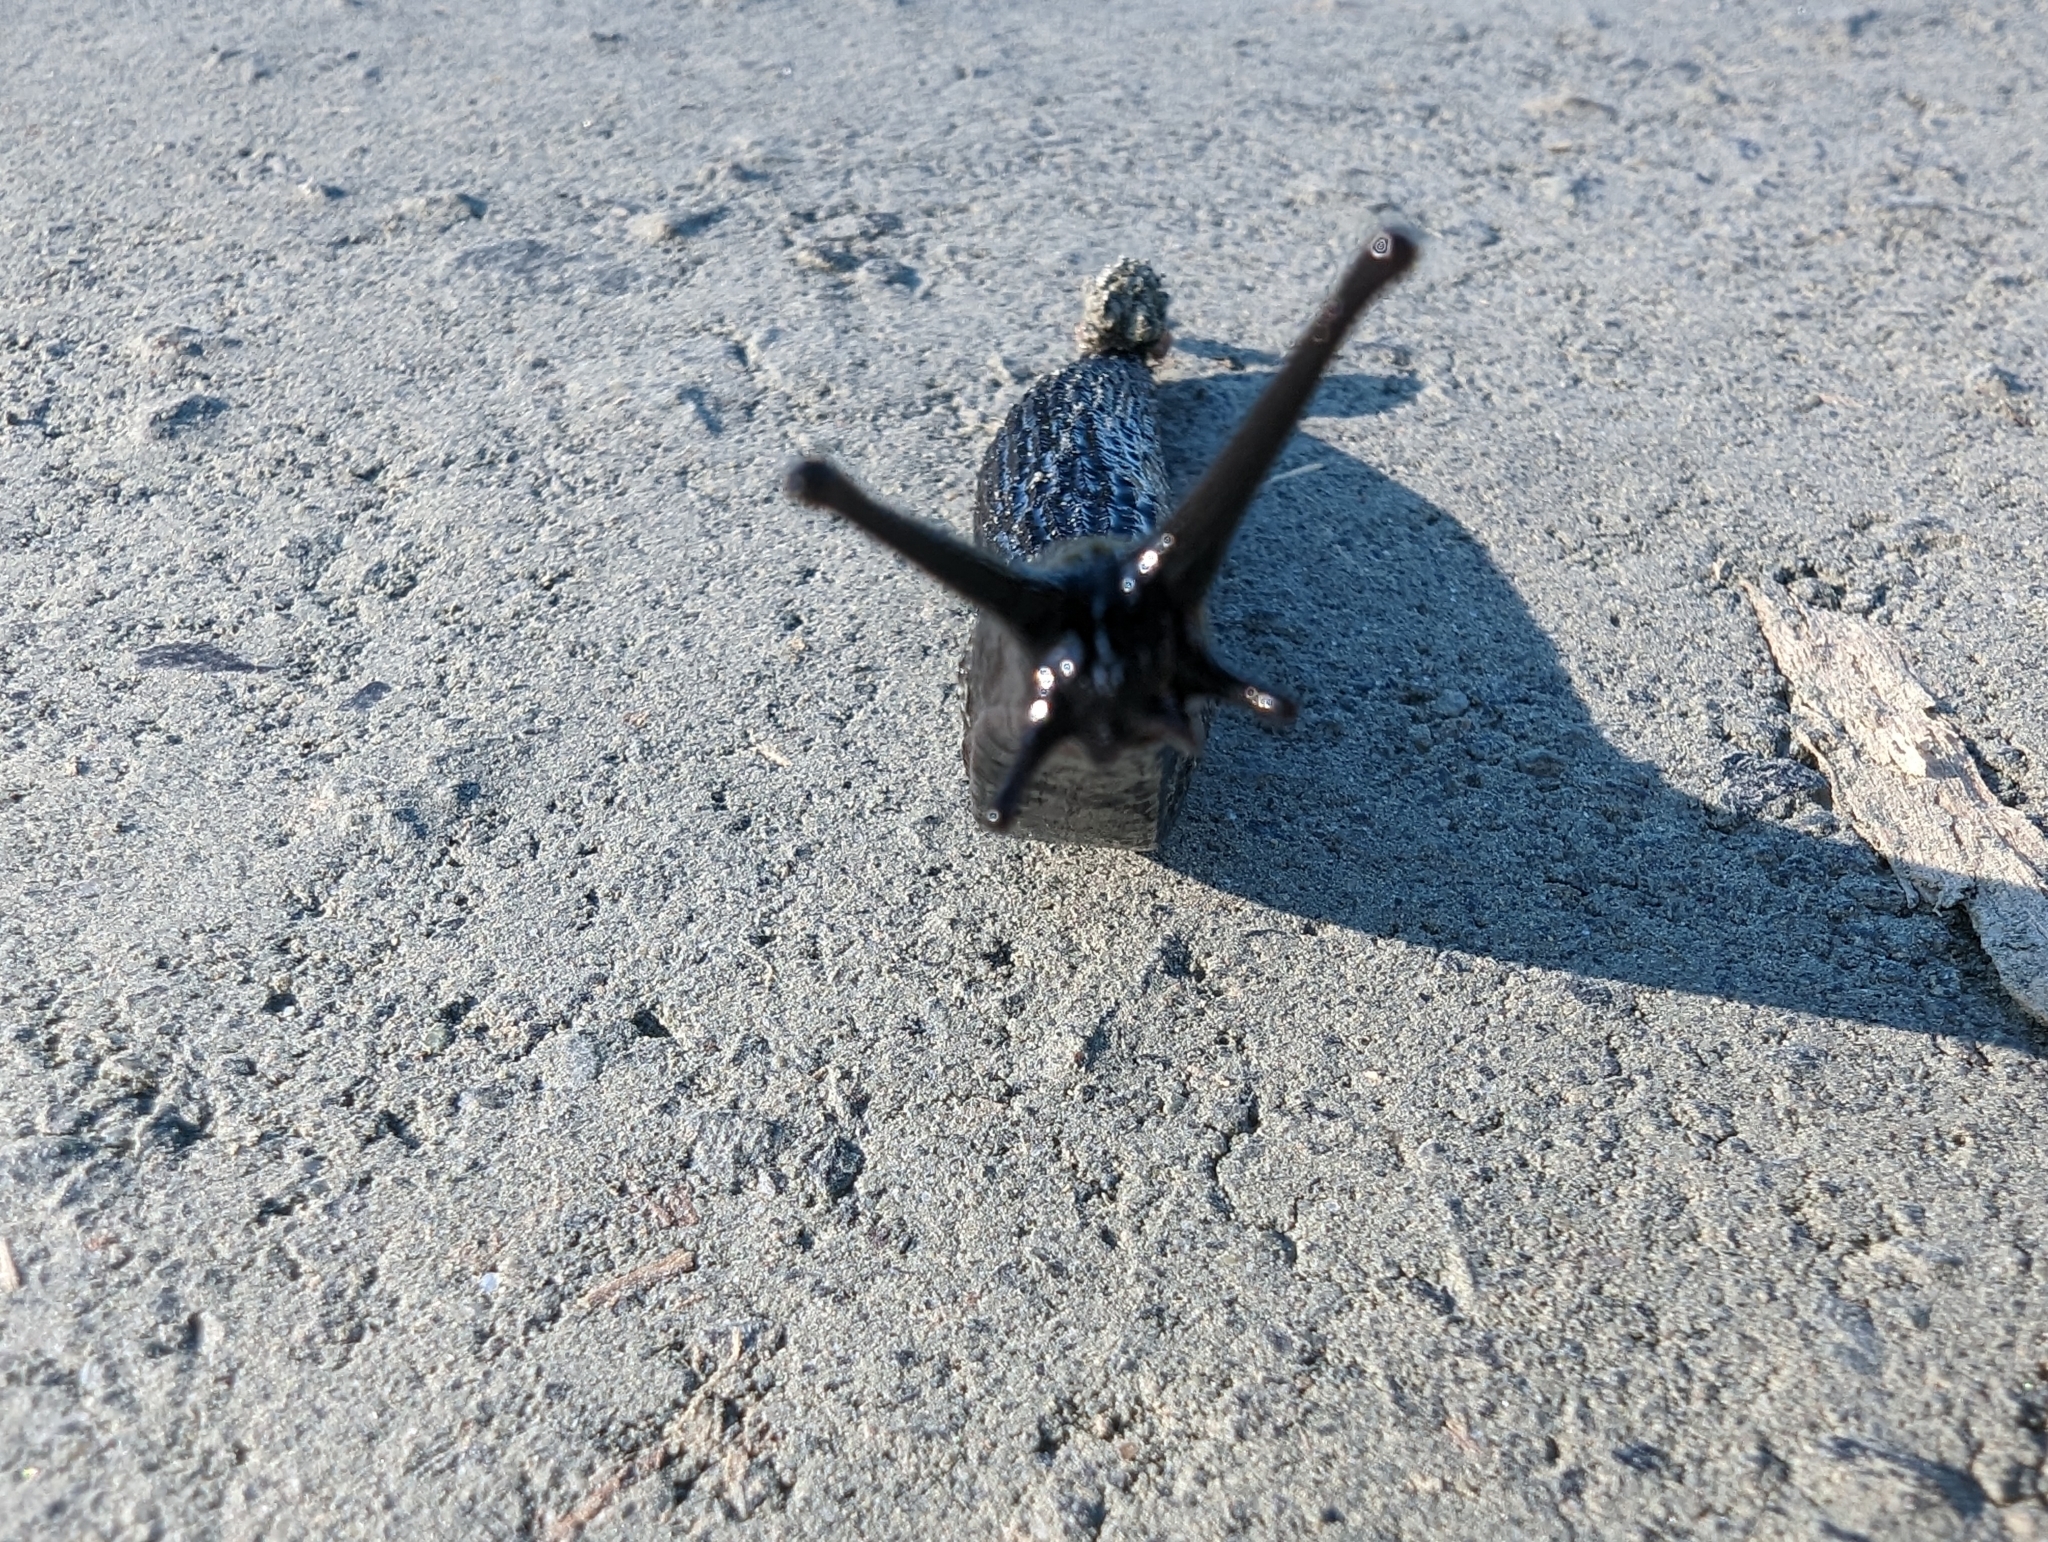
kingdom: Animalia
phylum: Mollusca
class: Gastropoda
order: Stylommatophora
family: Arionidae
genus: Arion
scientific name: Arion
